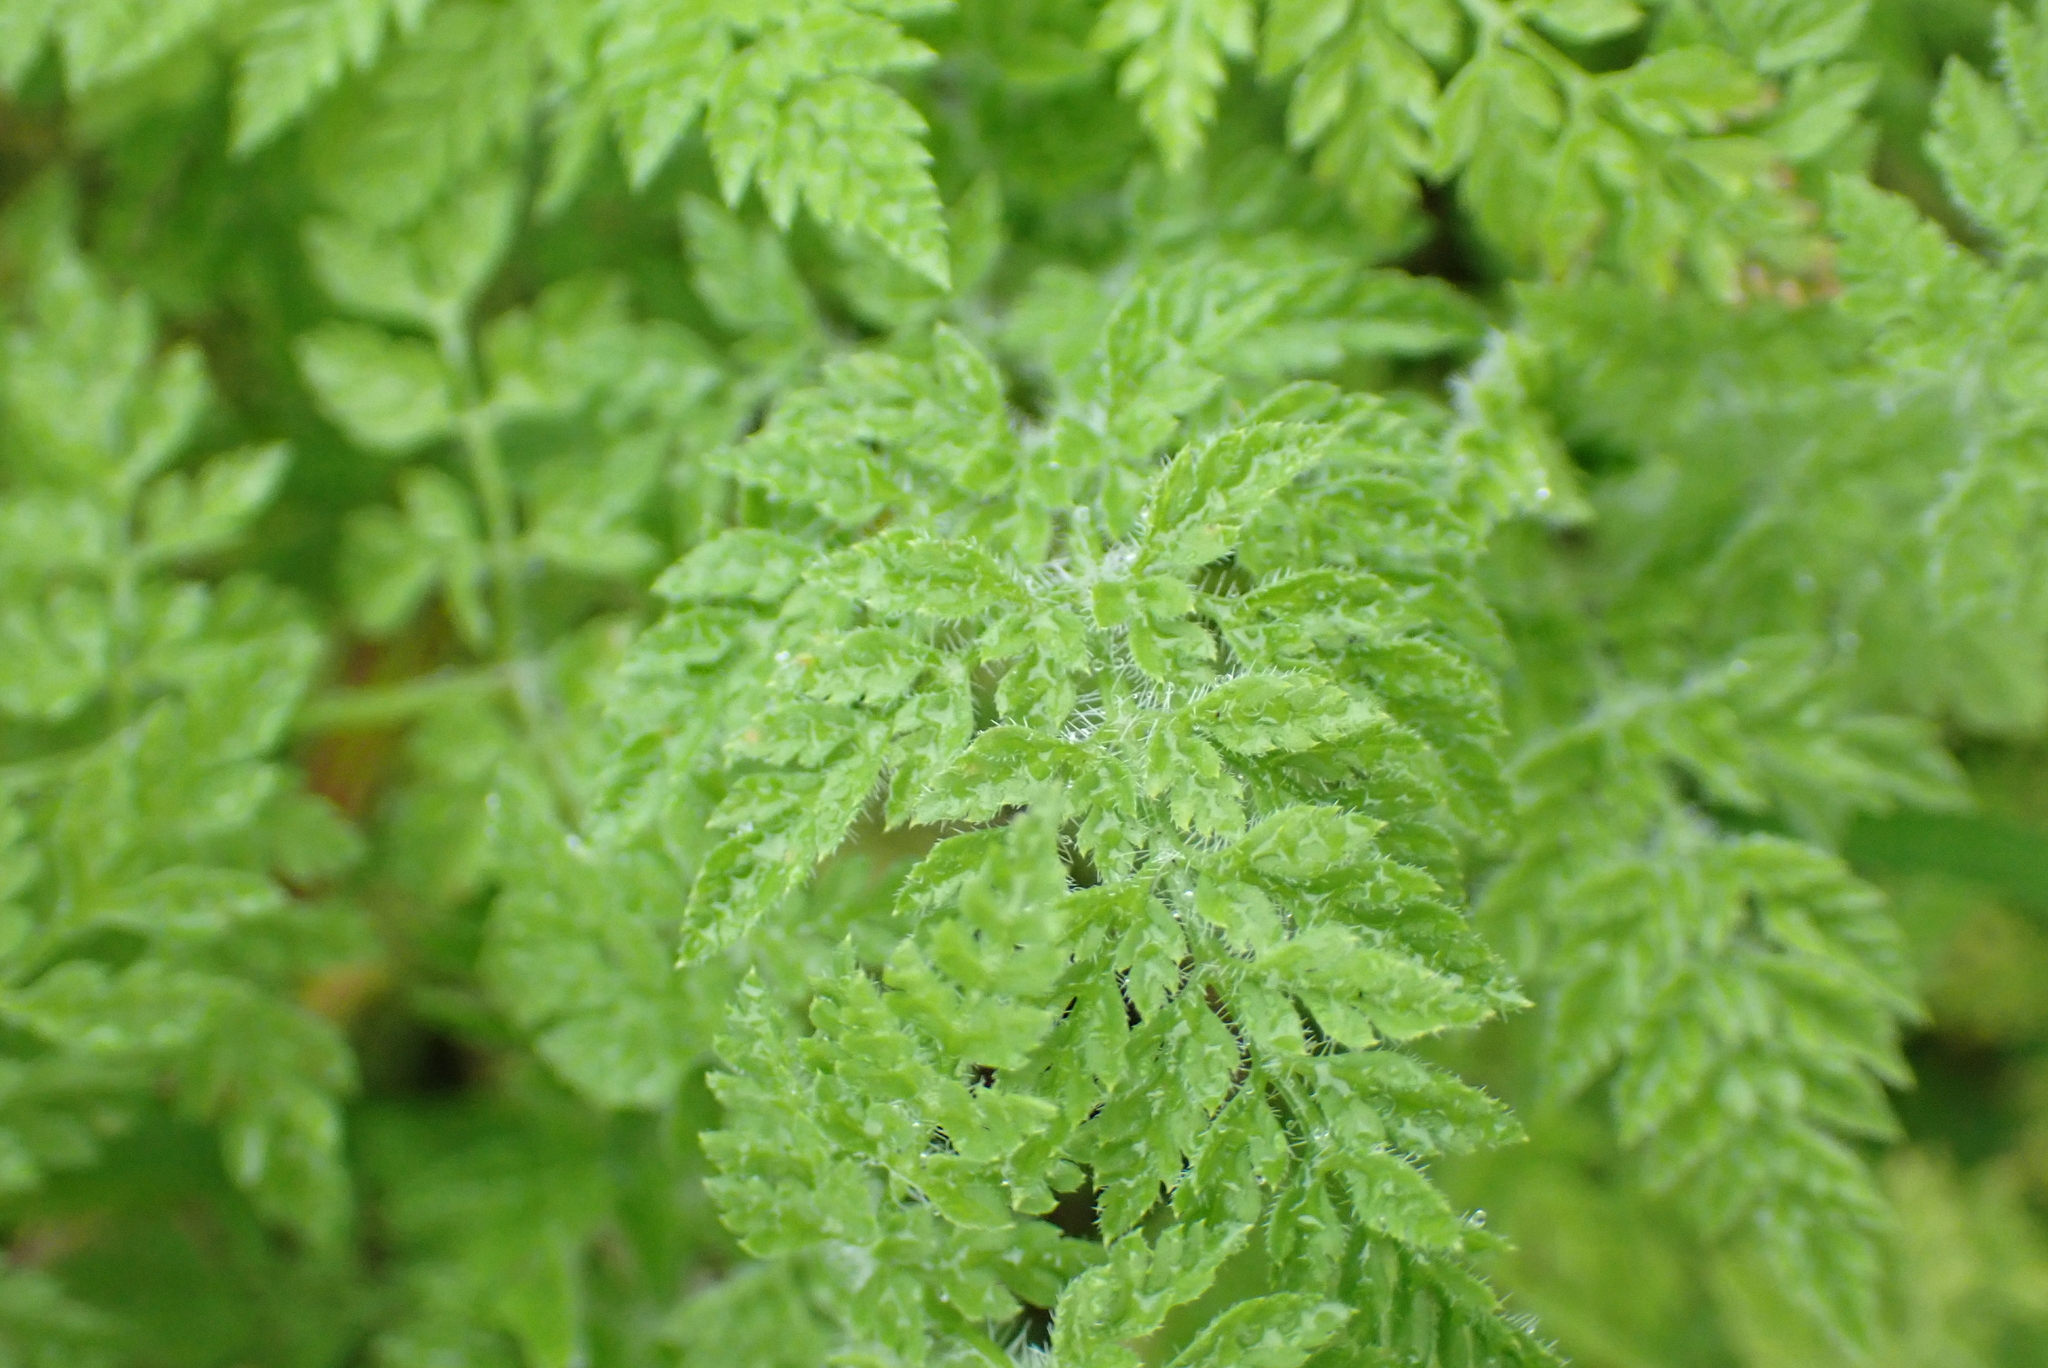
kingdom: Plantae
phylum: Tracheophyta
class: Magnoliopsida
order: Apiales
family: Apiaceae
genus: Anthriscus
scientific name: Anthriscus caucalis
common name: Bur chervil
